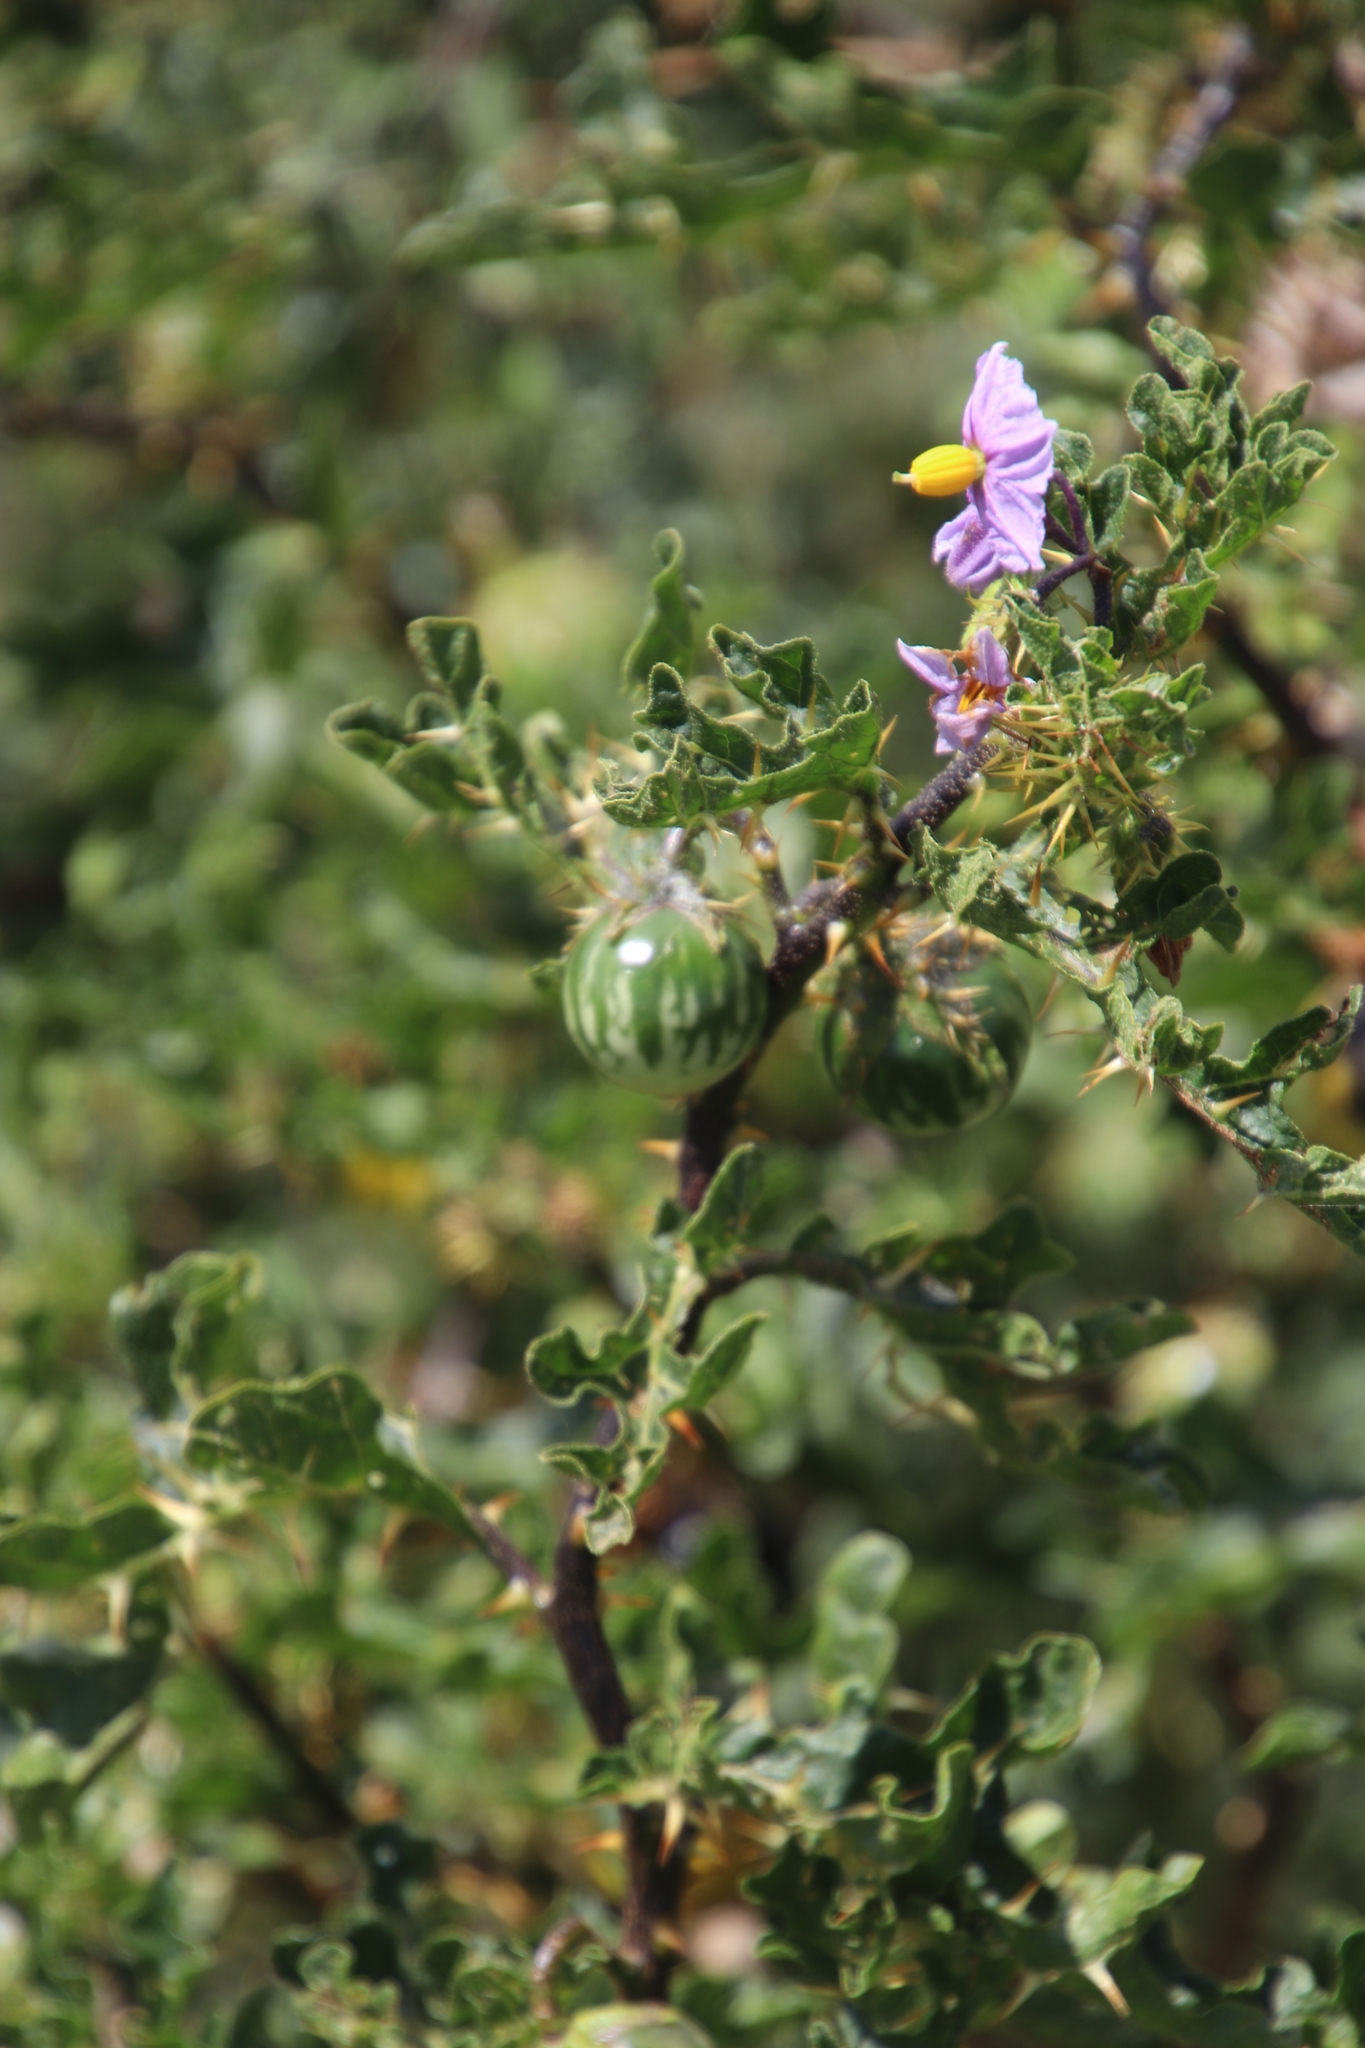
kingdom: Plantae
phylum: Tracheophyta
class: Magnoliopsida
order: Solanales
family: Solanaceae
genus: Solanum
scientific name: Solanum linnaeanum
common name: Nightshade
